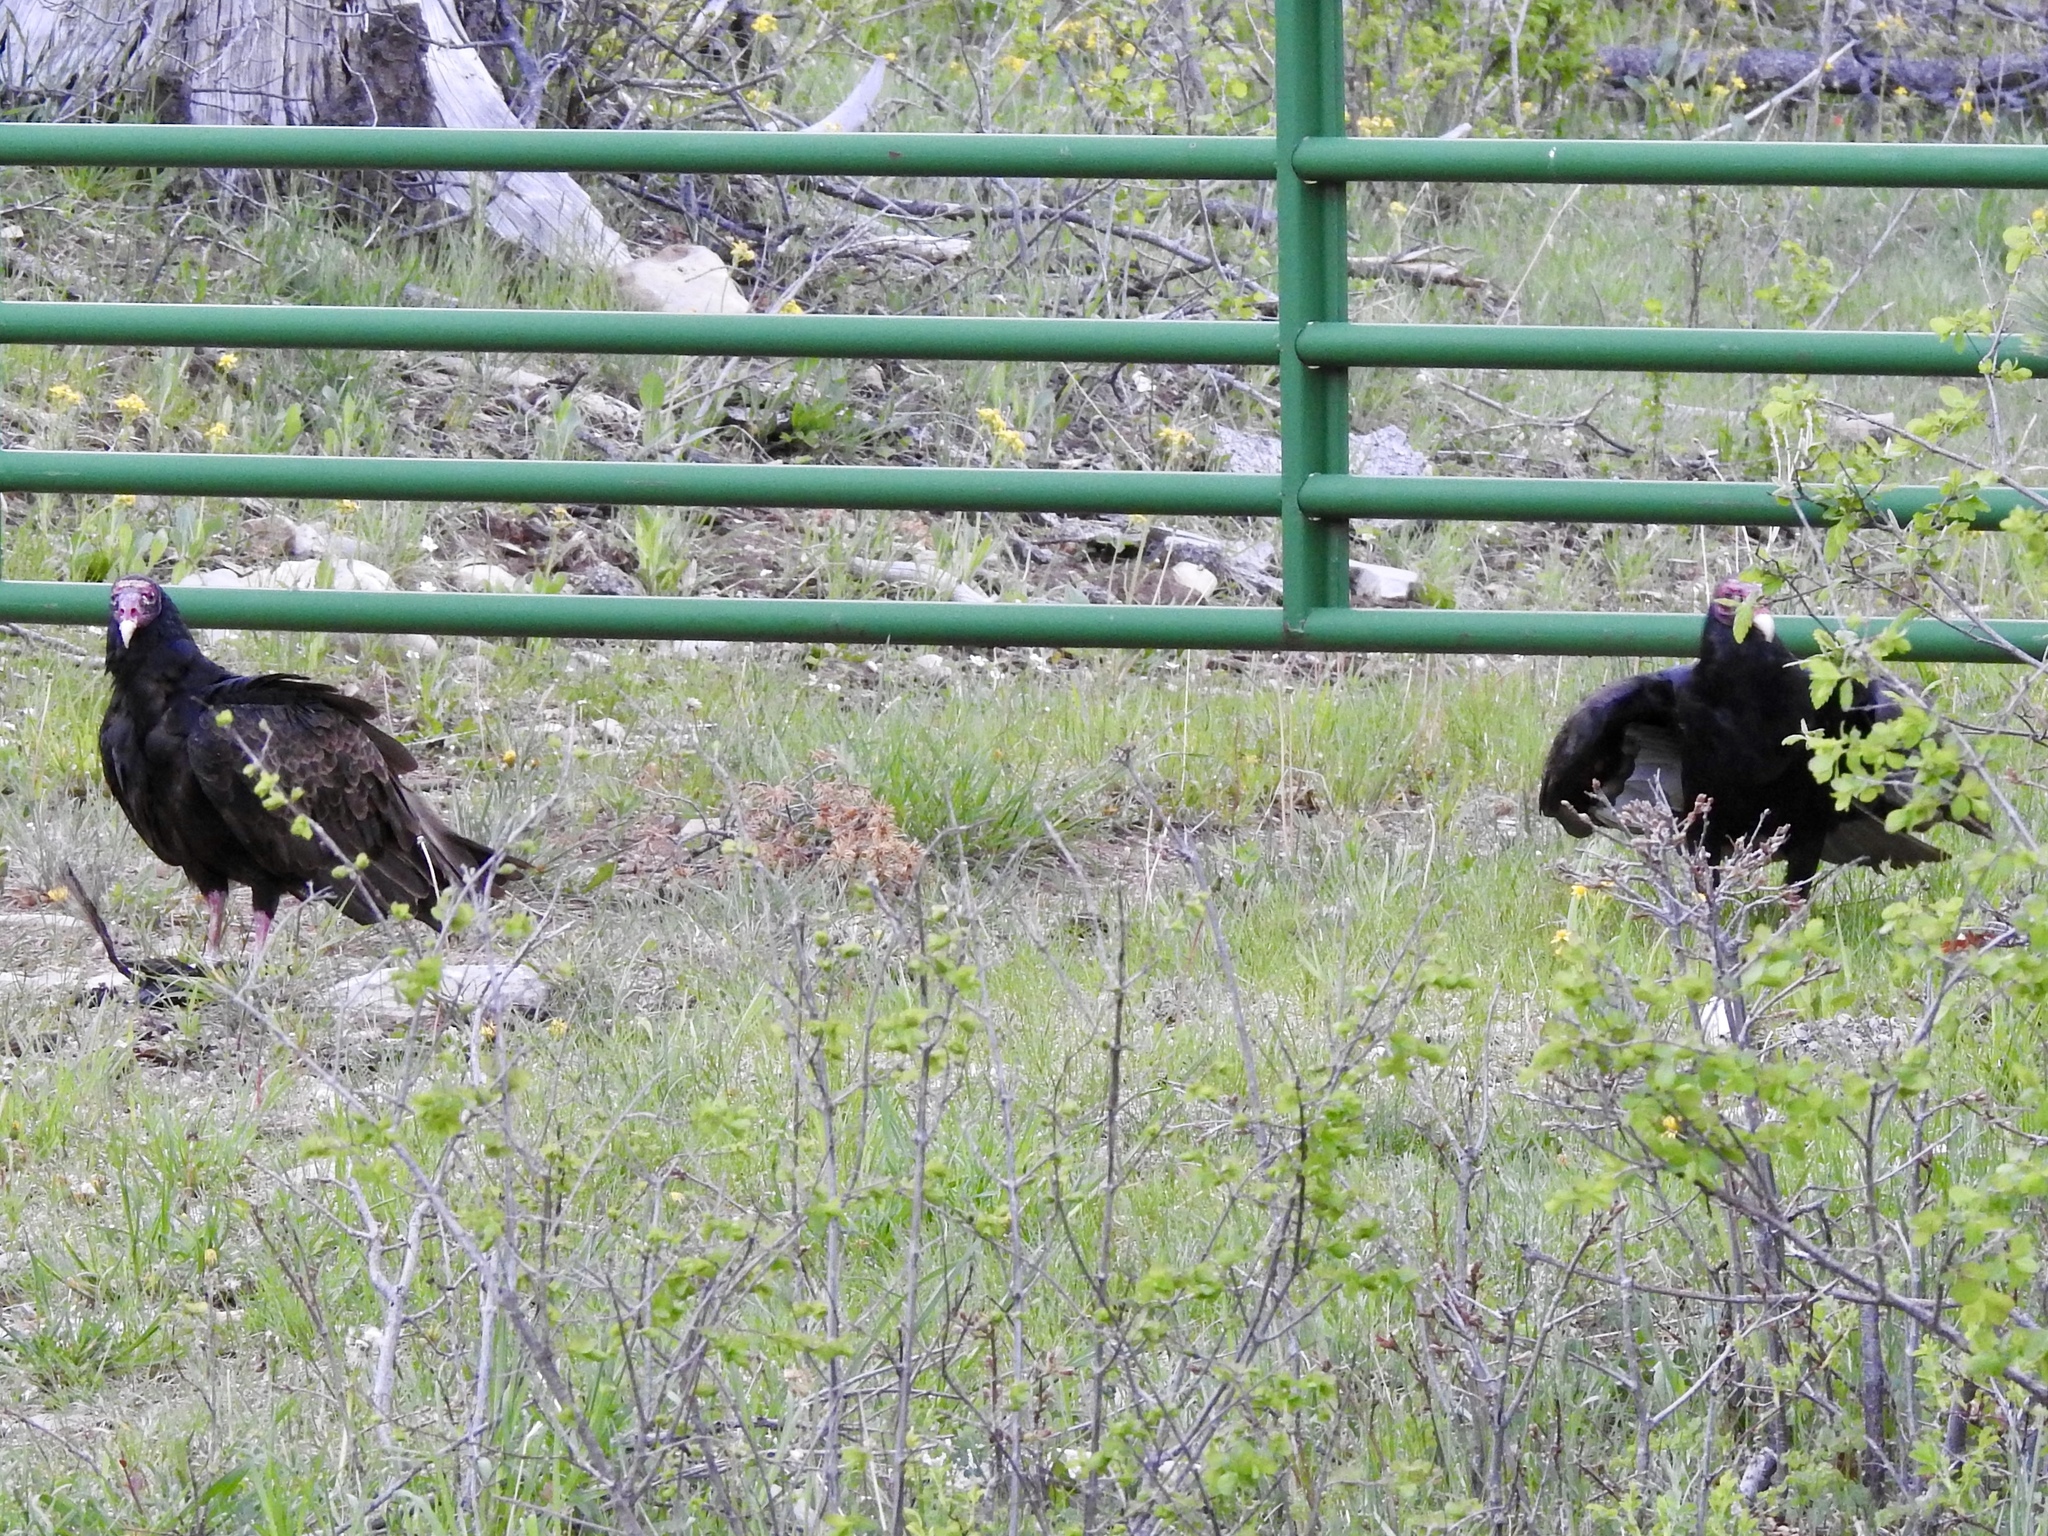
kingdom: Animalia
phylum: Chordata
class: Aves
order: Accipitriformes
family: Cathartidae
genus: Cathartes
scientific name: Cathartes aura
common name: Turkey vulture
